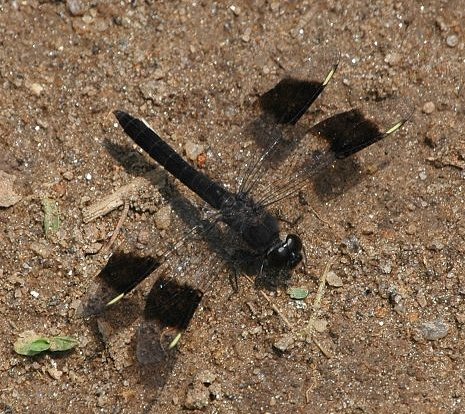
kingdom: Animalia
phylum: Arthropoda
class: Insecta
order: Odonata
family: Libellulidae
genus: Brachythemis
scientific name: Brachythemis leucosticta
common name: Banded groundling
